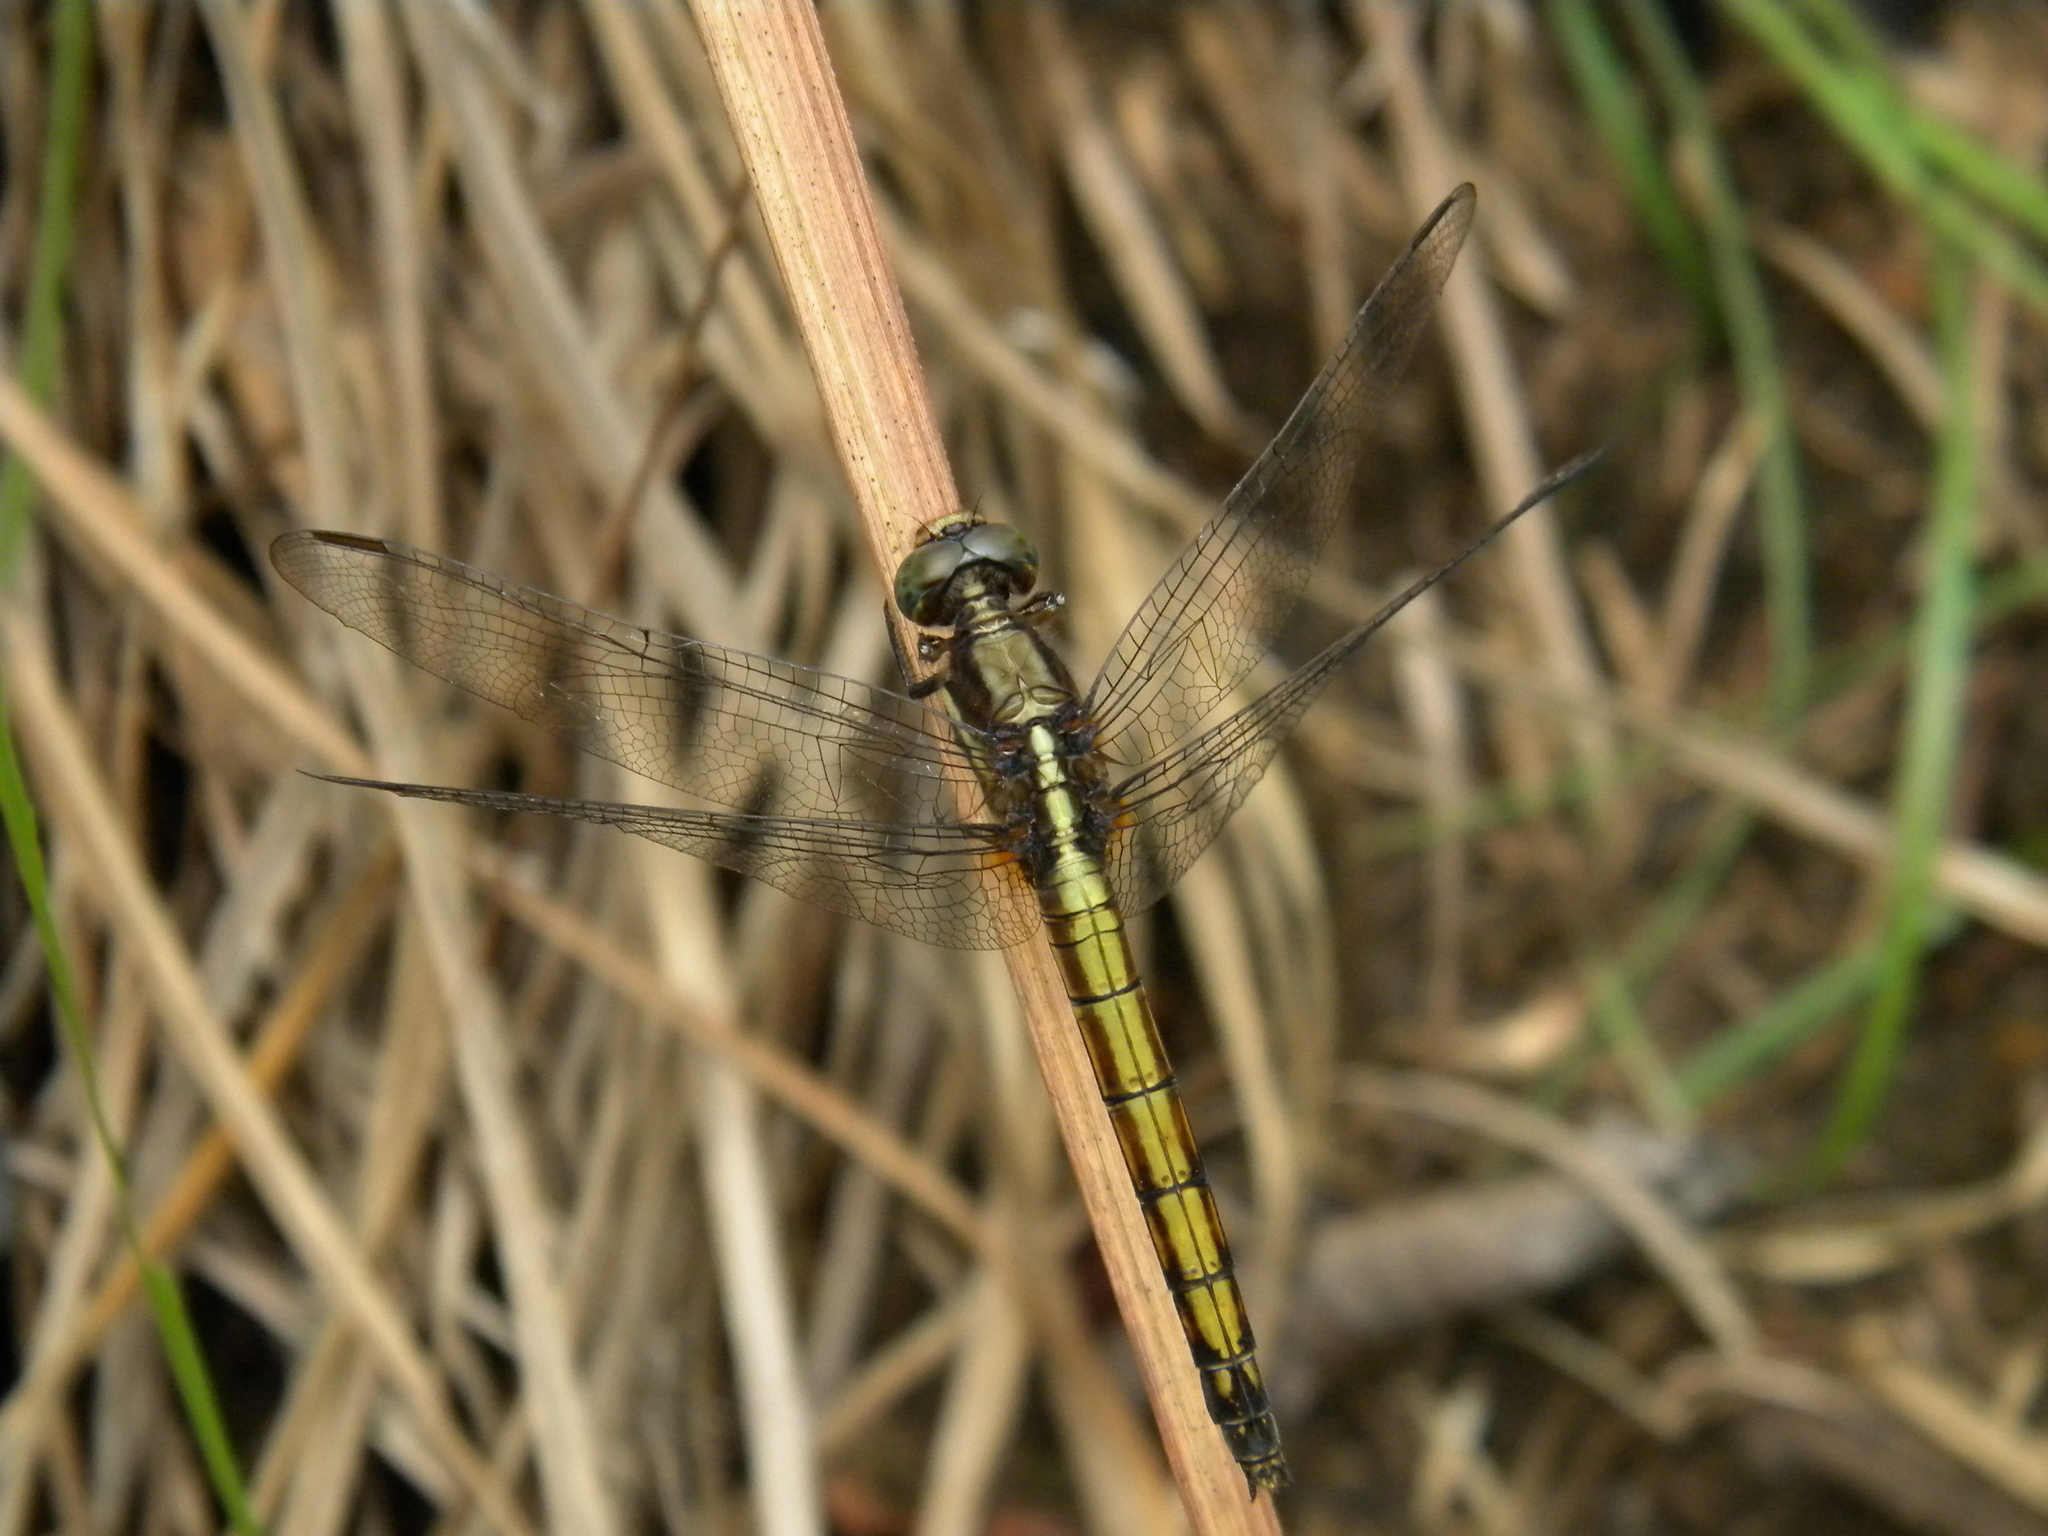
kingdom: Animalia
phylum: Arthropoda
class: Insecta
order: Odonata
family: Libellulidae
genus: Orthetrum
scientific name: Orthetrum glaucum
